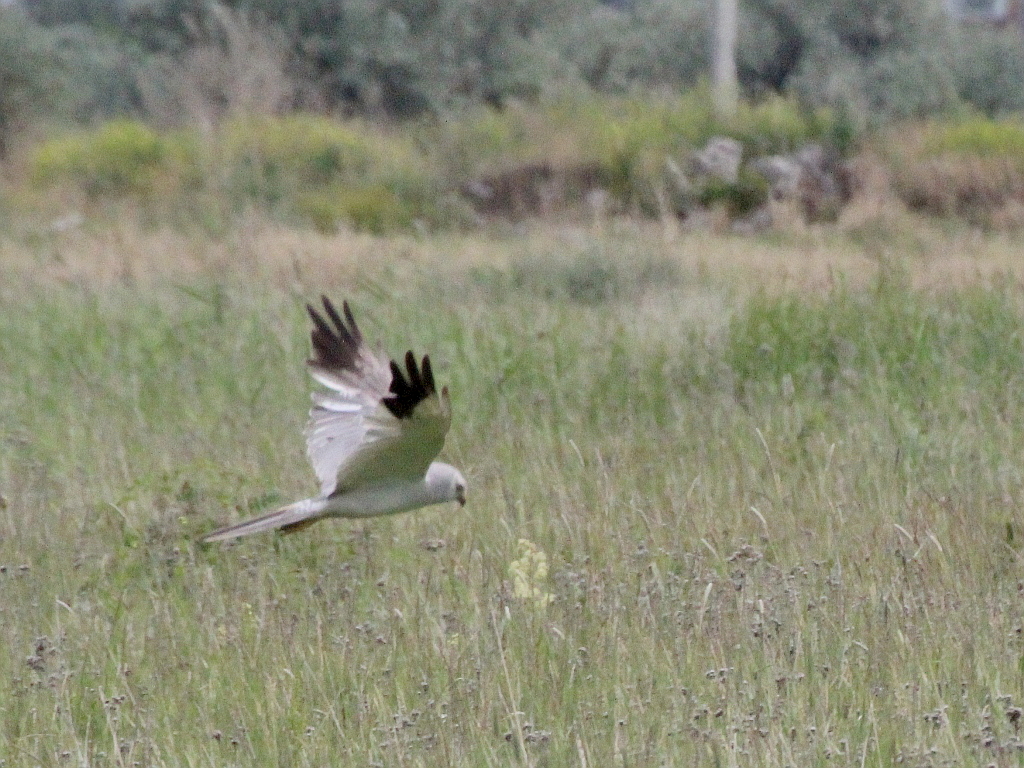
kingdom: Animalia
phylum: Chordata
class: Aves
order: Accipitriformes
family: Accipitridae
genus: Circus
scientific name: Circus macrourus
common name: Pallid harrier
